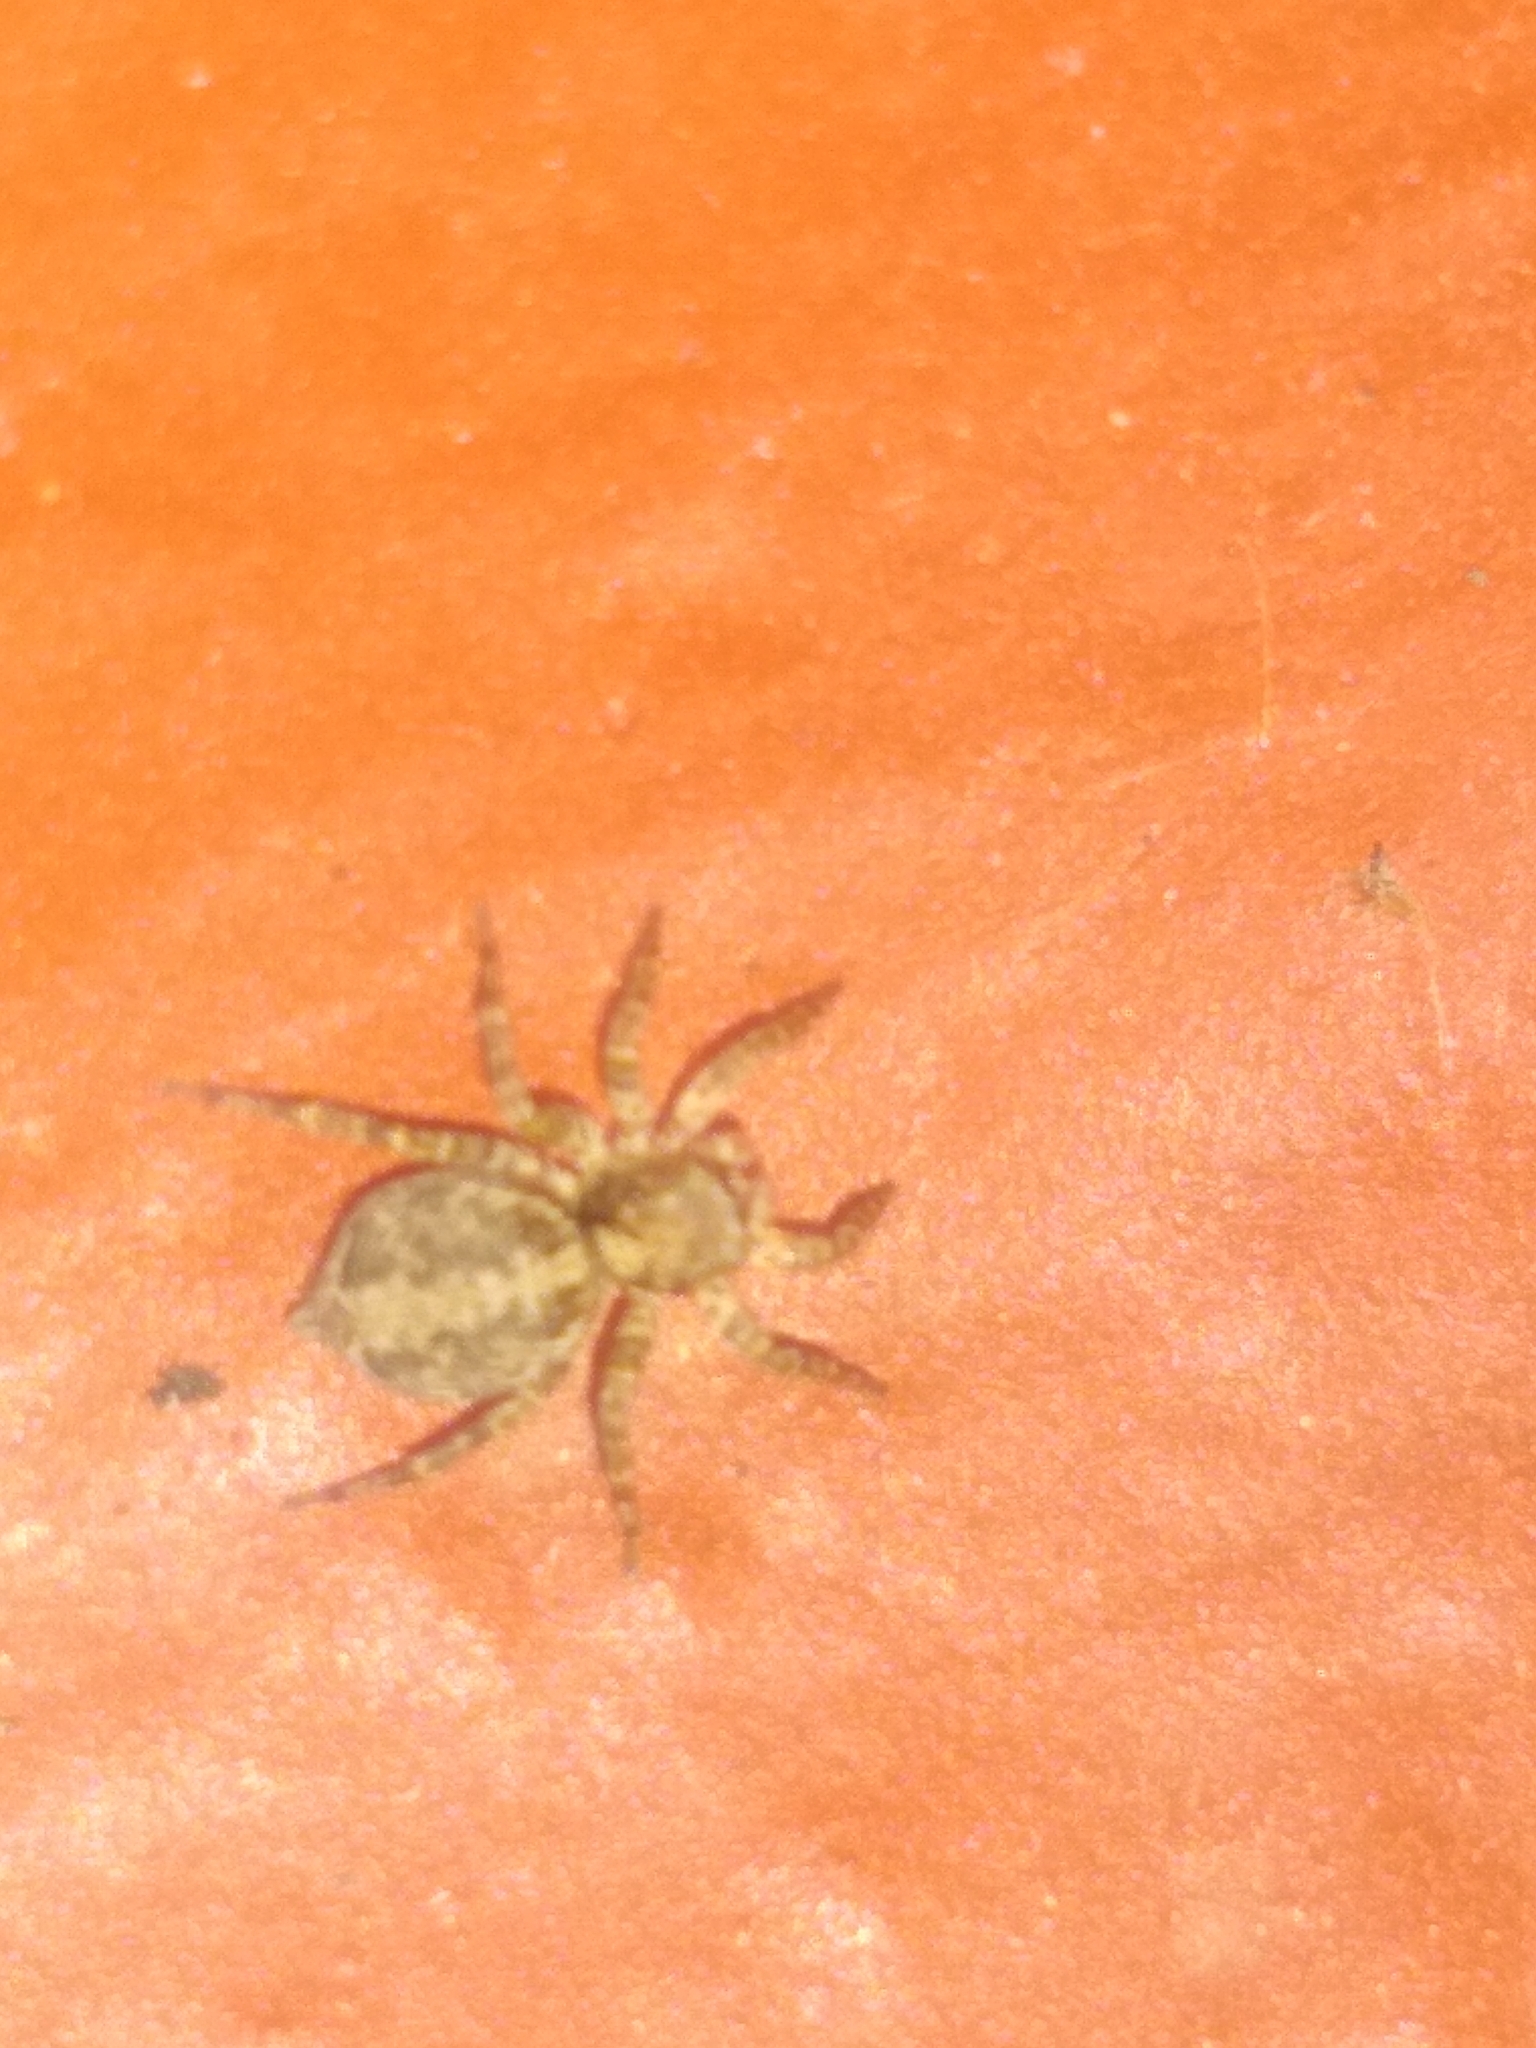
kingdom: Animalia
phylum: Arthropoda
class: Arachnida
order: Araneae
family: Salticidae
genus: Saitis
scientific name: Saitis variegatus
